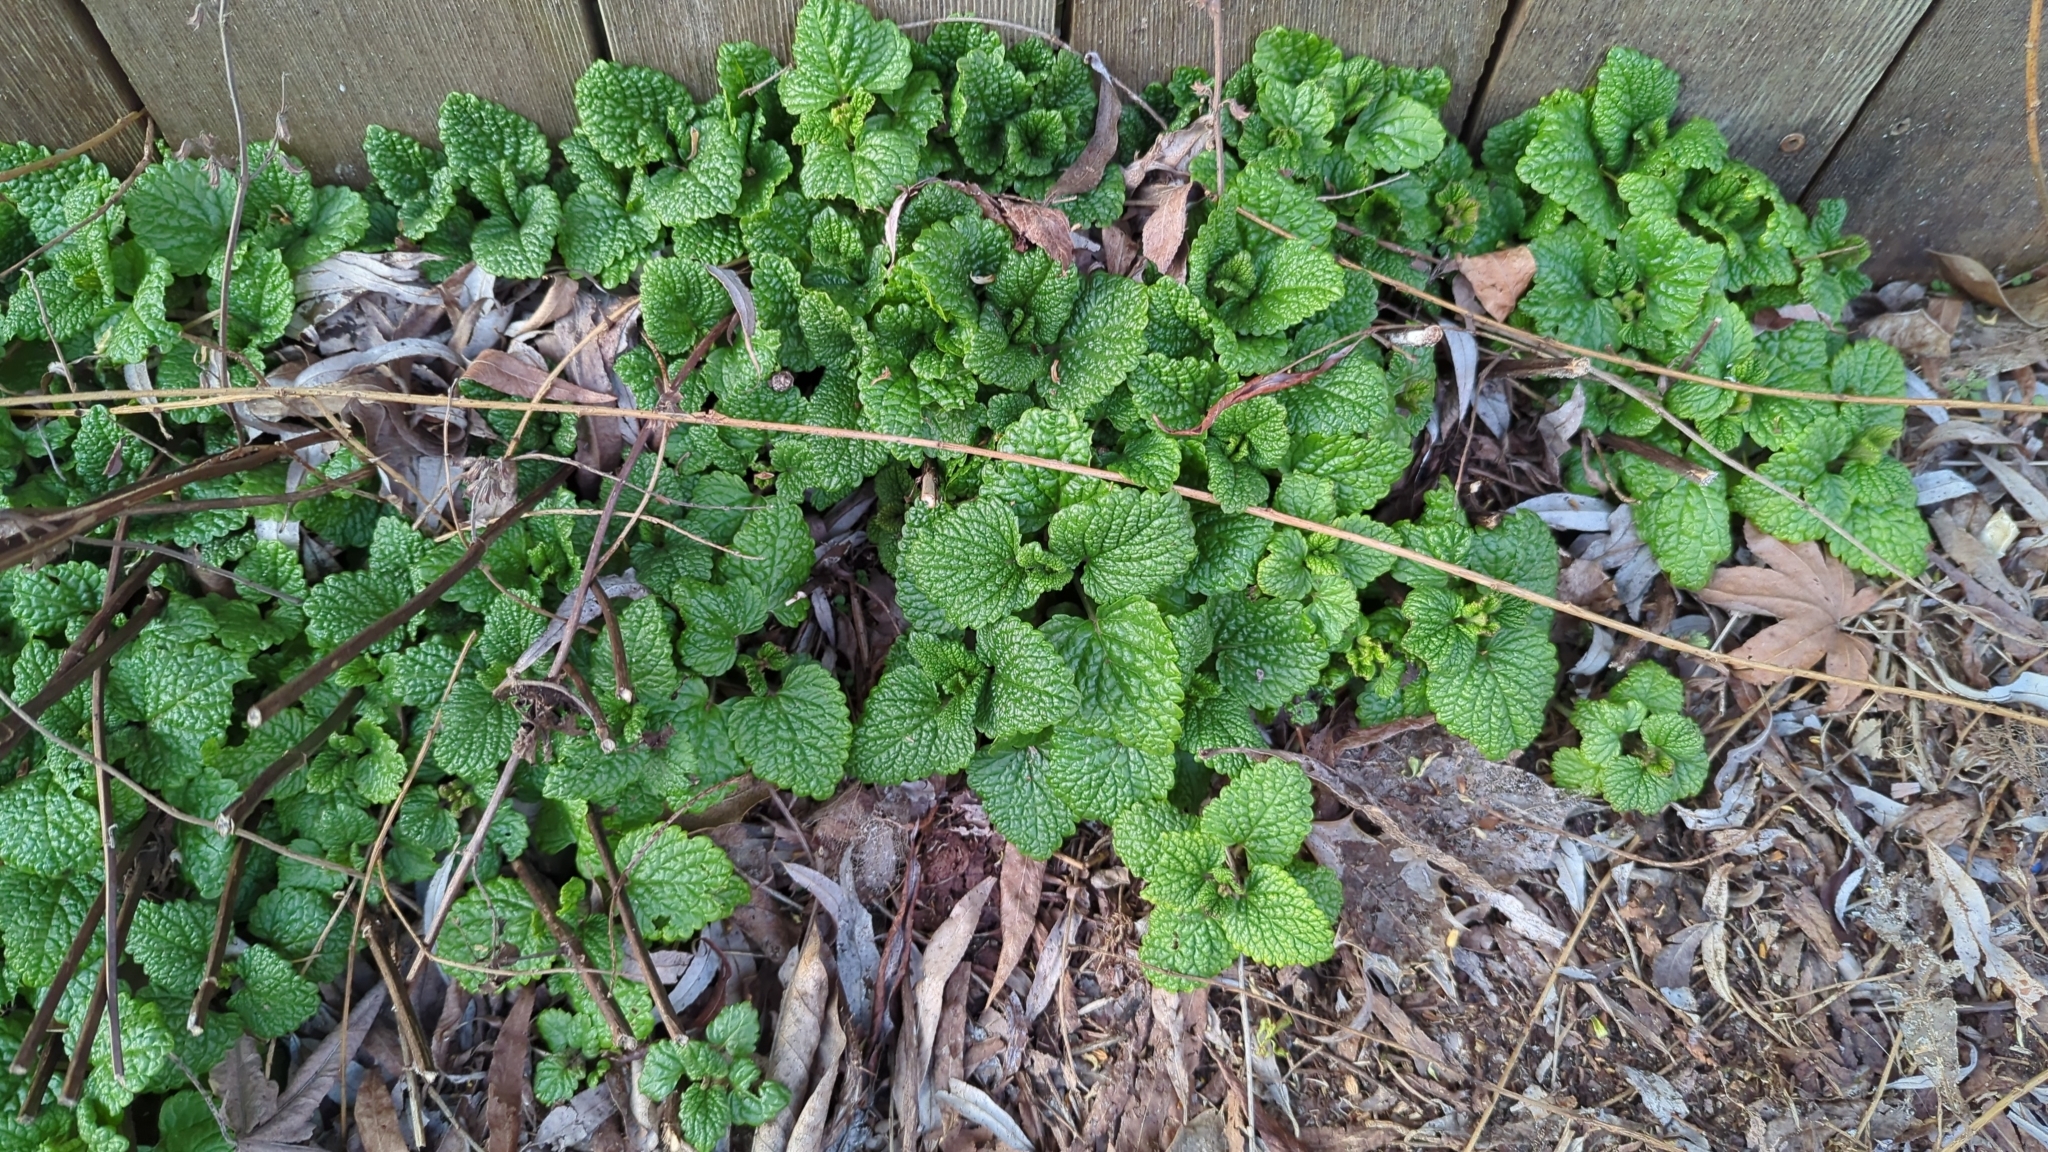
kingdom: Plantae
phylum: Tracheophyta
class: Magnoliopsida
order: Lamiales
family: Lamiaceae
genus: Melissa
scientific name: Melissa officinalis
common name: Balm
